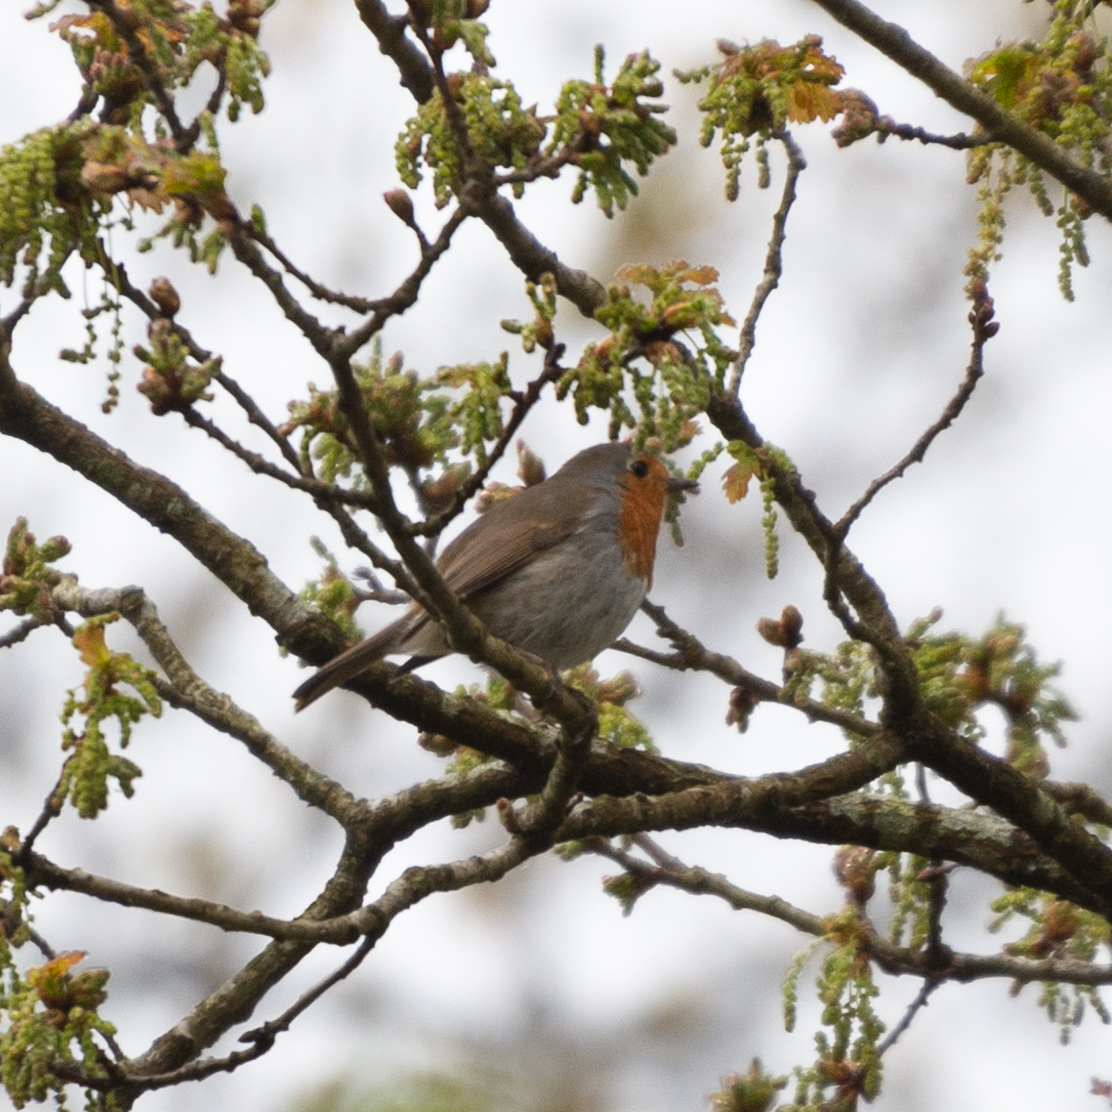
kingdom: Animalia
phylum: Chordata
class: Aves
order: Passeriformes
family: Muscicapidae
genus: Erithacus
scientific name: Erithacus rubecula
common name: European robin
